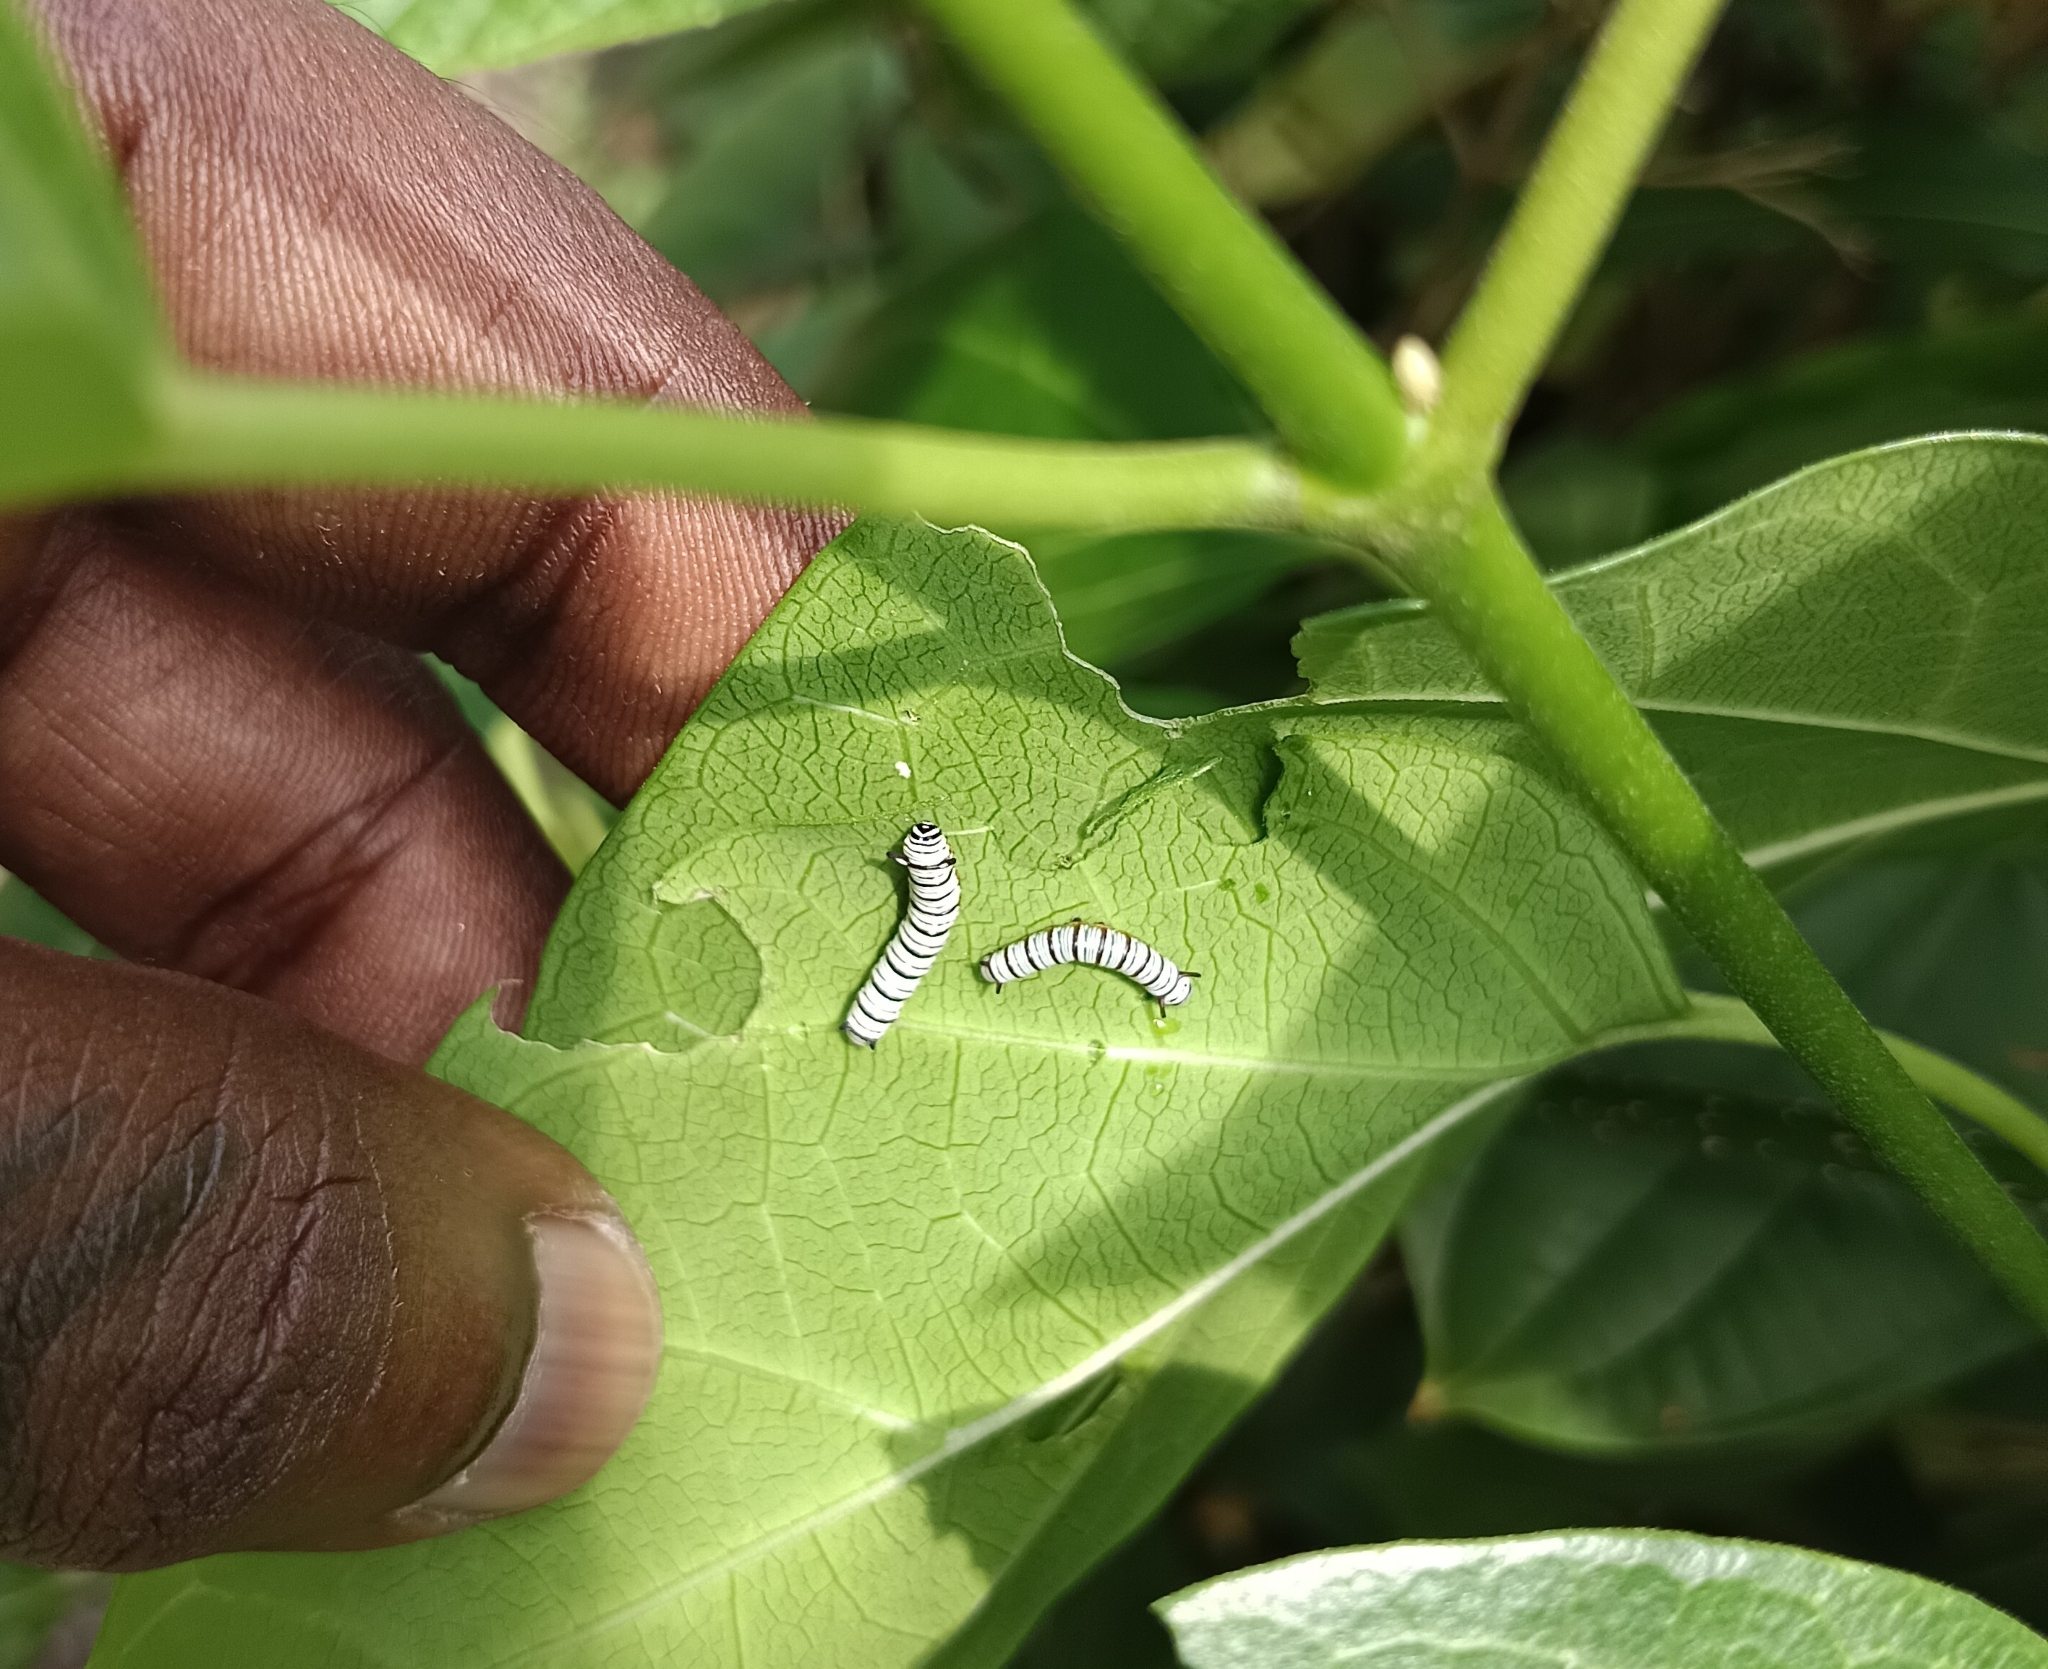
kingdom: Animalia
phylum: Arthropoda
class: Insecta
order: Lepidoptera
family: Nymphalidae
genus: Tirumala
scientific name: Tirumala limniace
